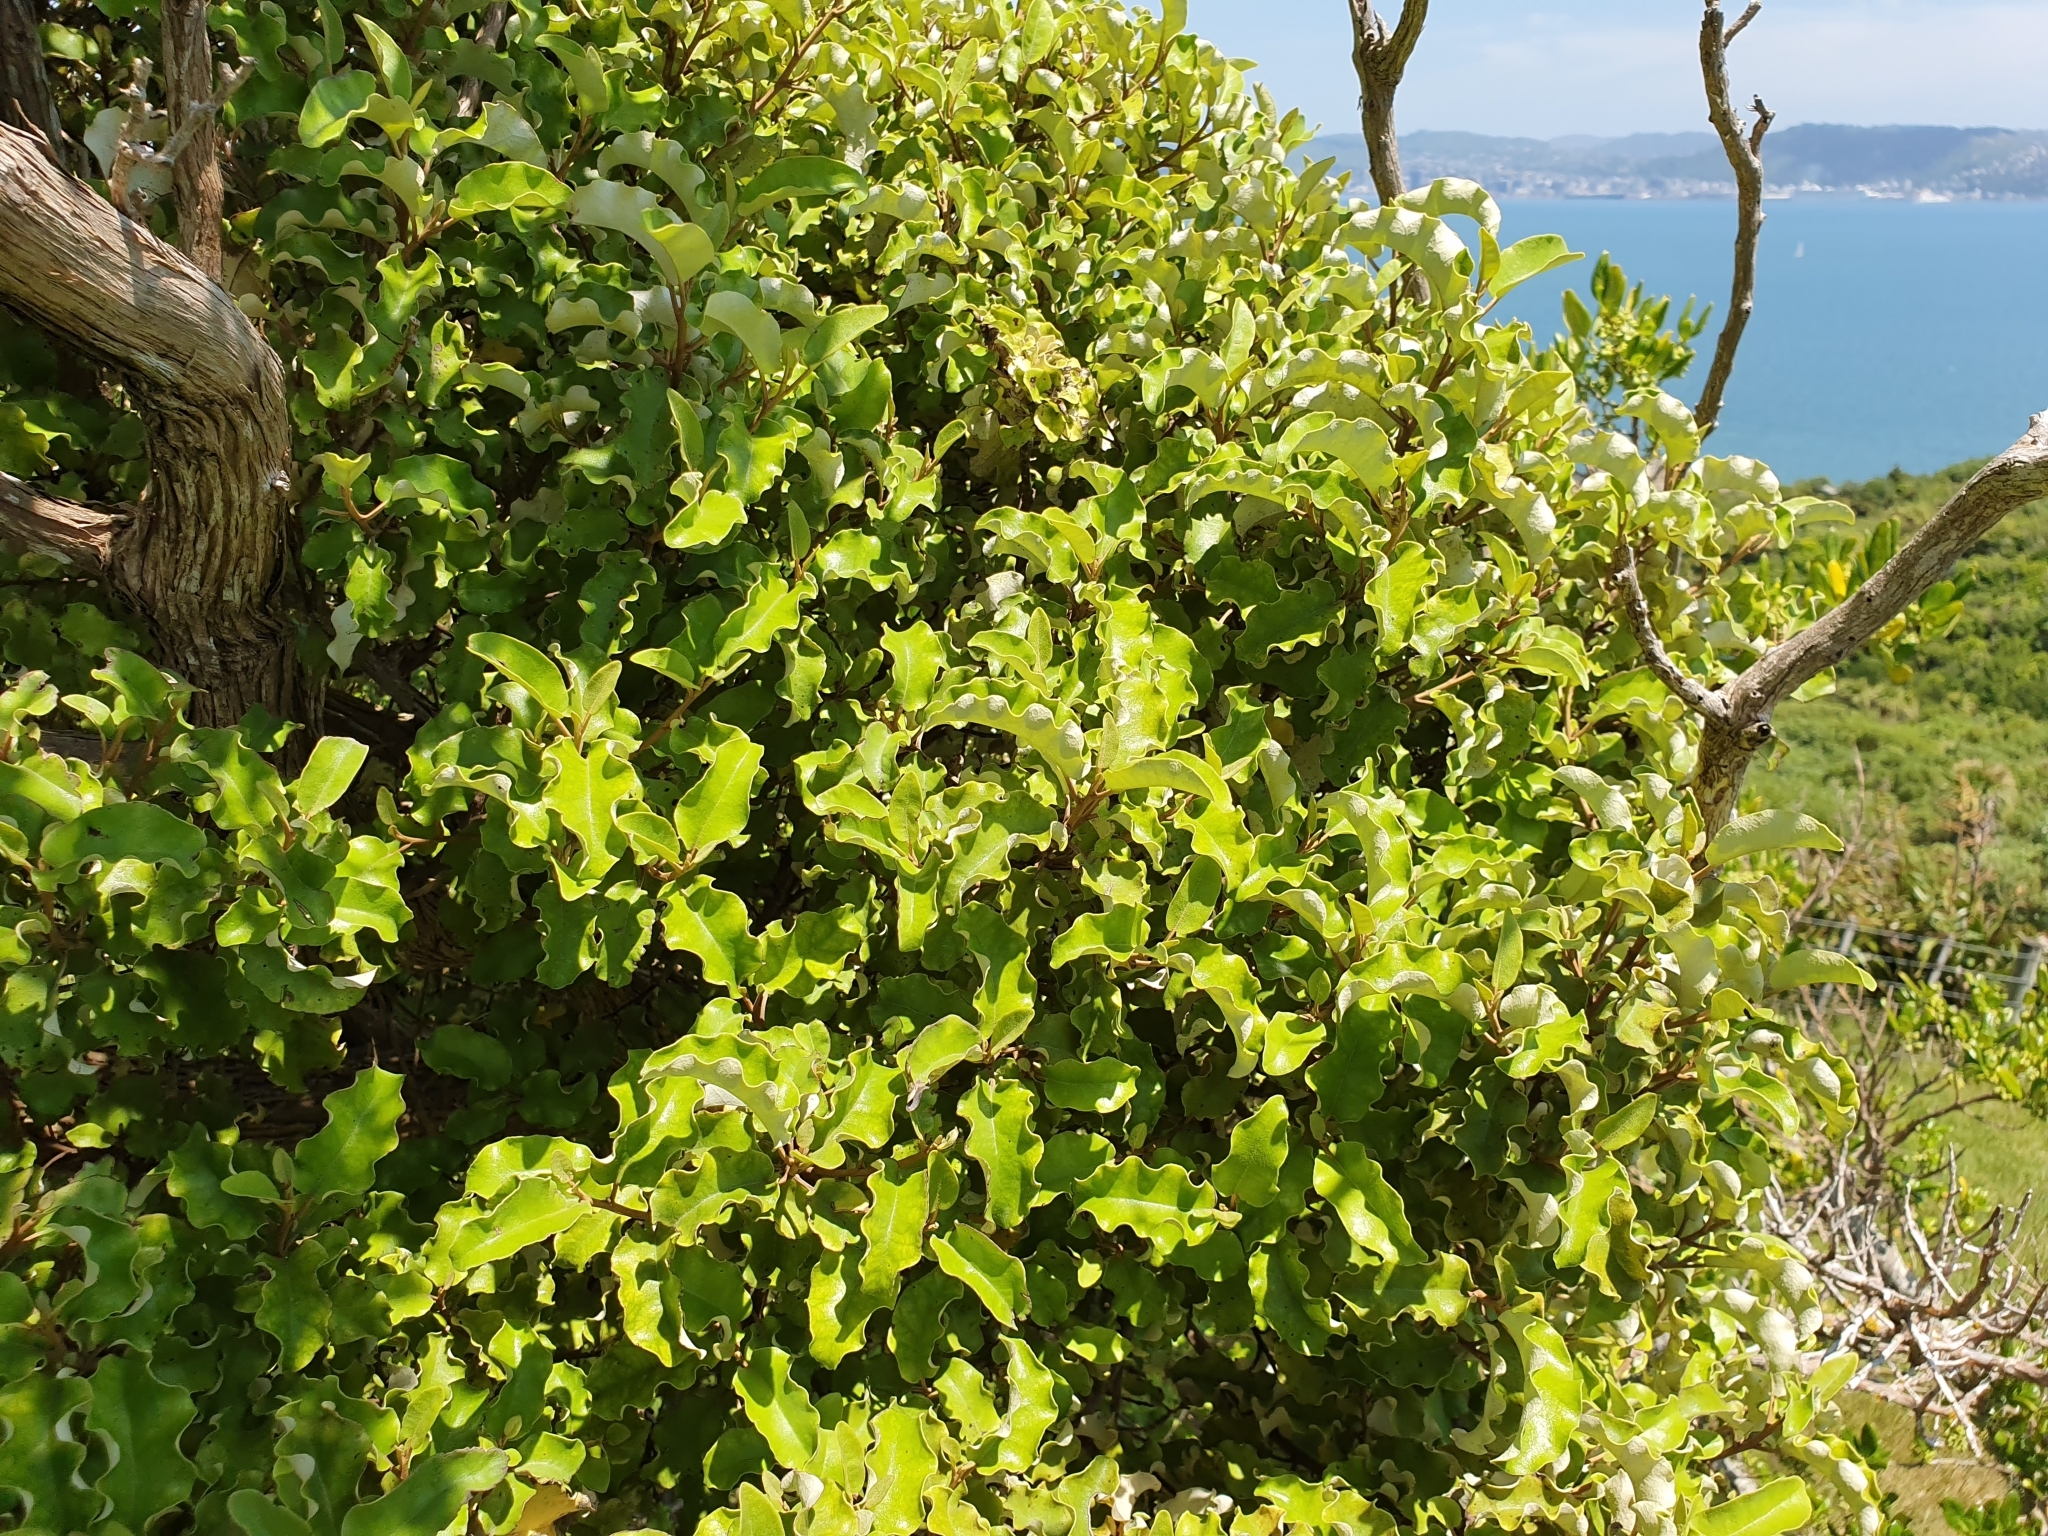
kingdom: Plantae
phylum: Tracheophyta
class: Magnoliopsida
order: Asterales
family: Asteraceae
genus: Olearia
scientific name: Olearia paniculata
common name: Akiraho
